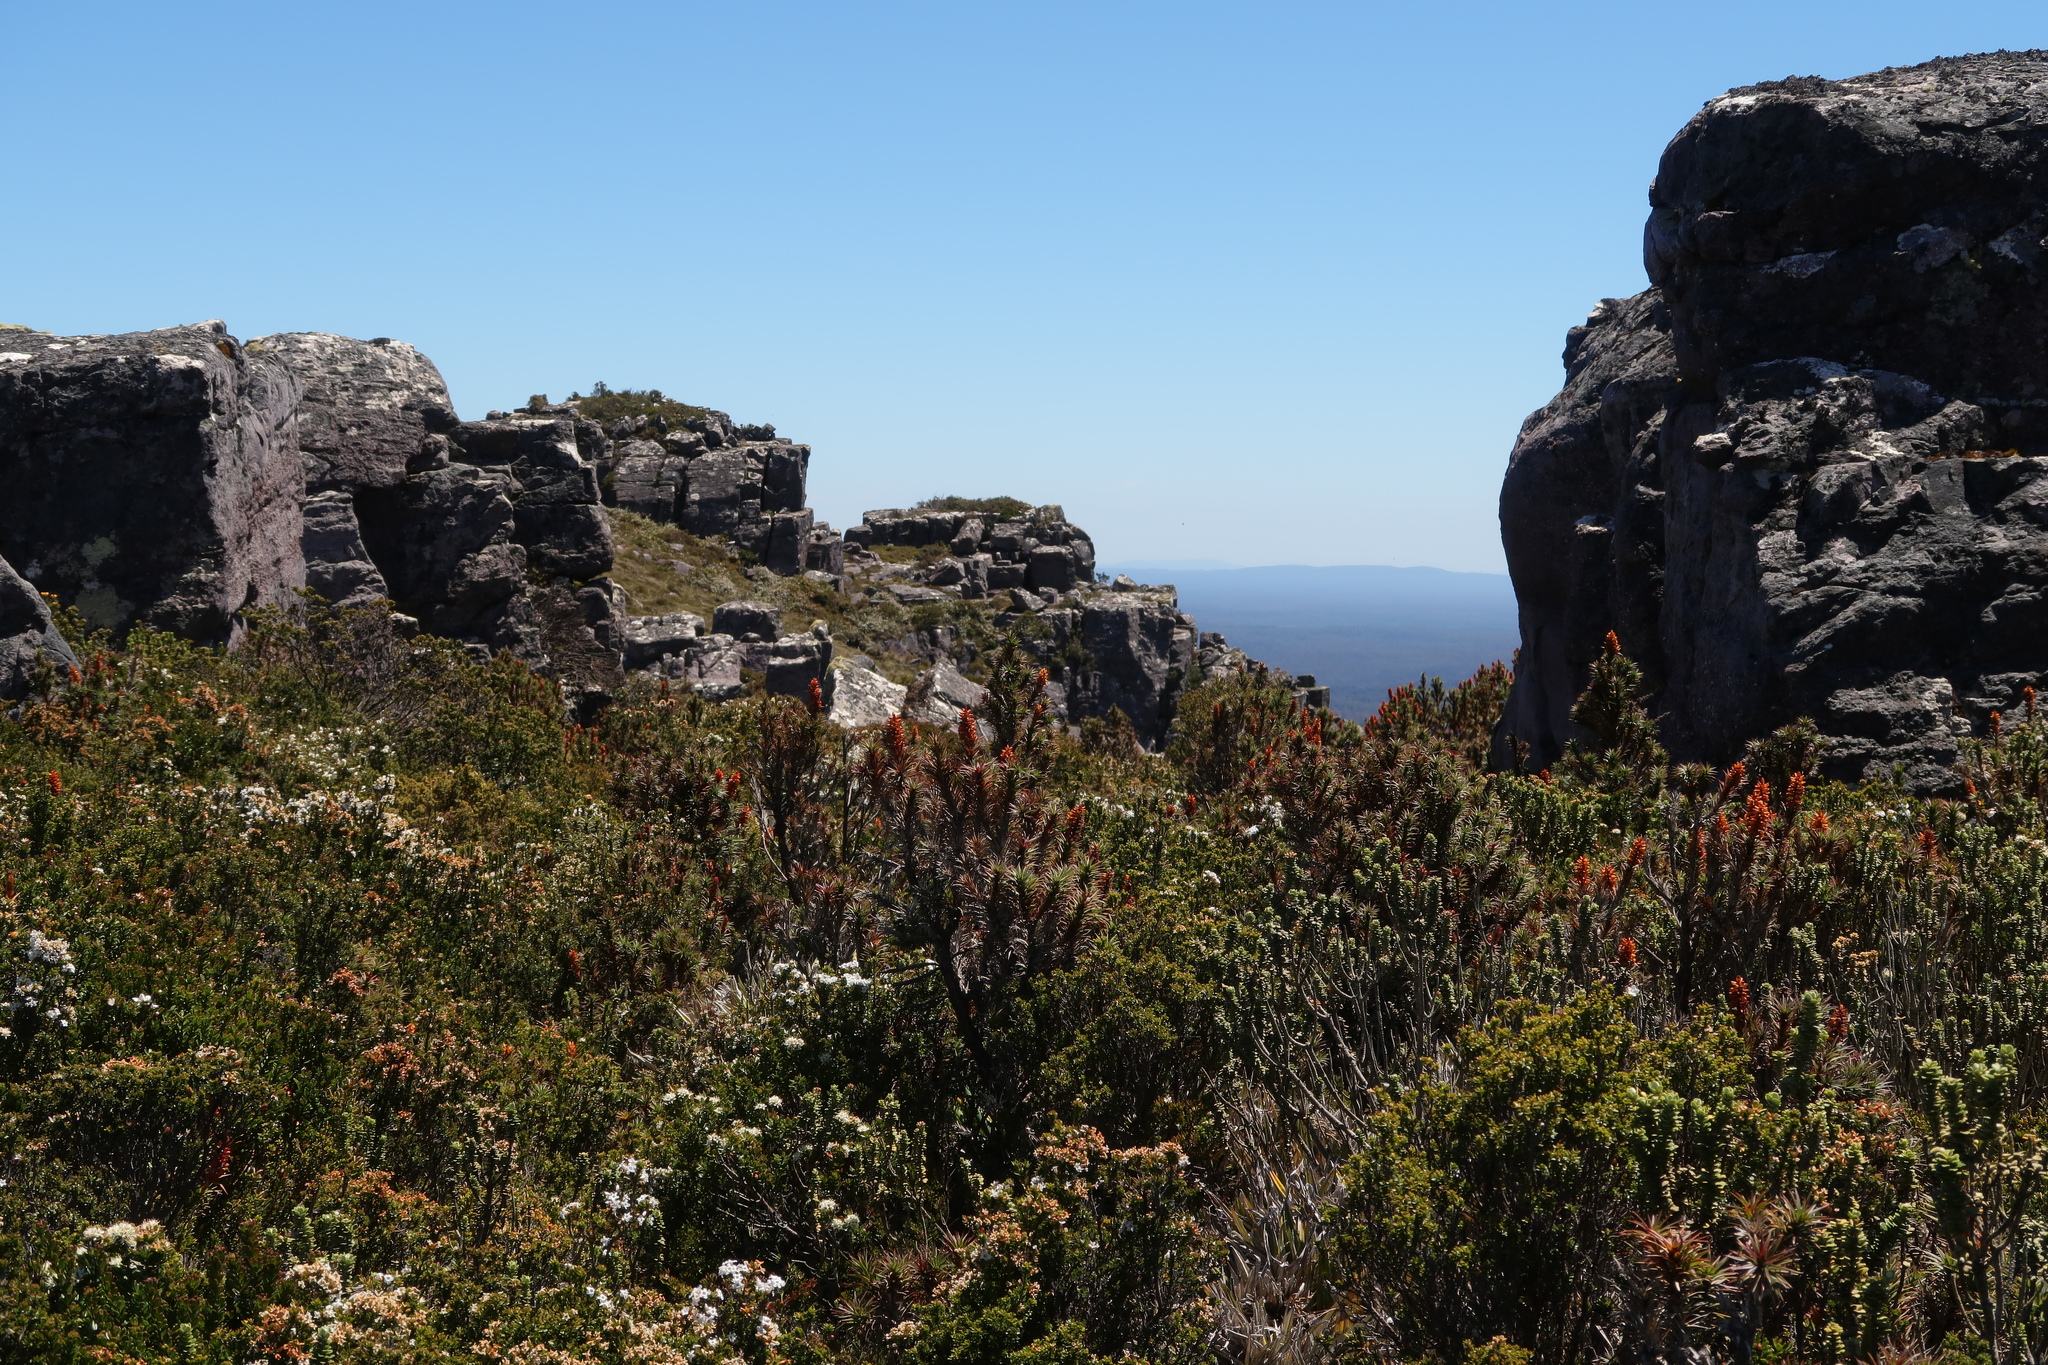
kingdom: Plantae
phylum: Tracheophyta
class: Magnoliopsida
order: Ericales
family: Ericaceae
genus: Dracophyllum
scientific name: Dracophyllum persistentifolium
